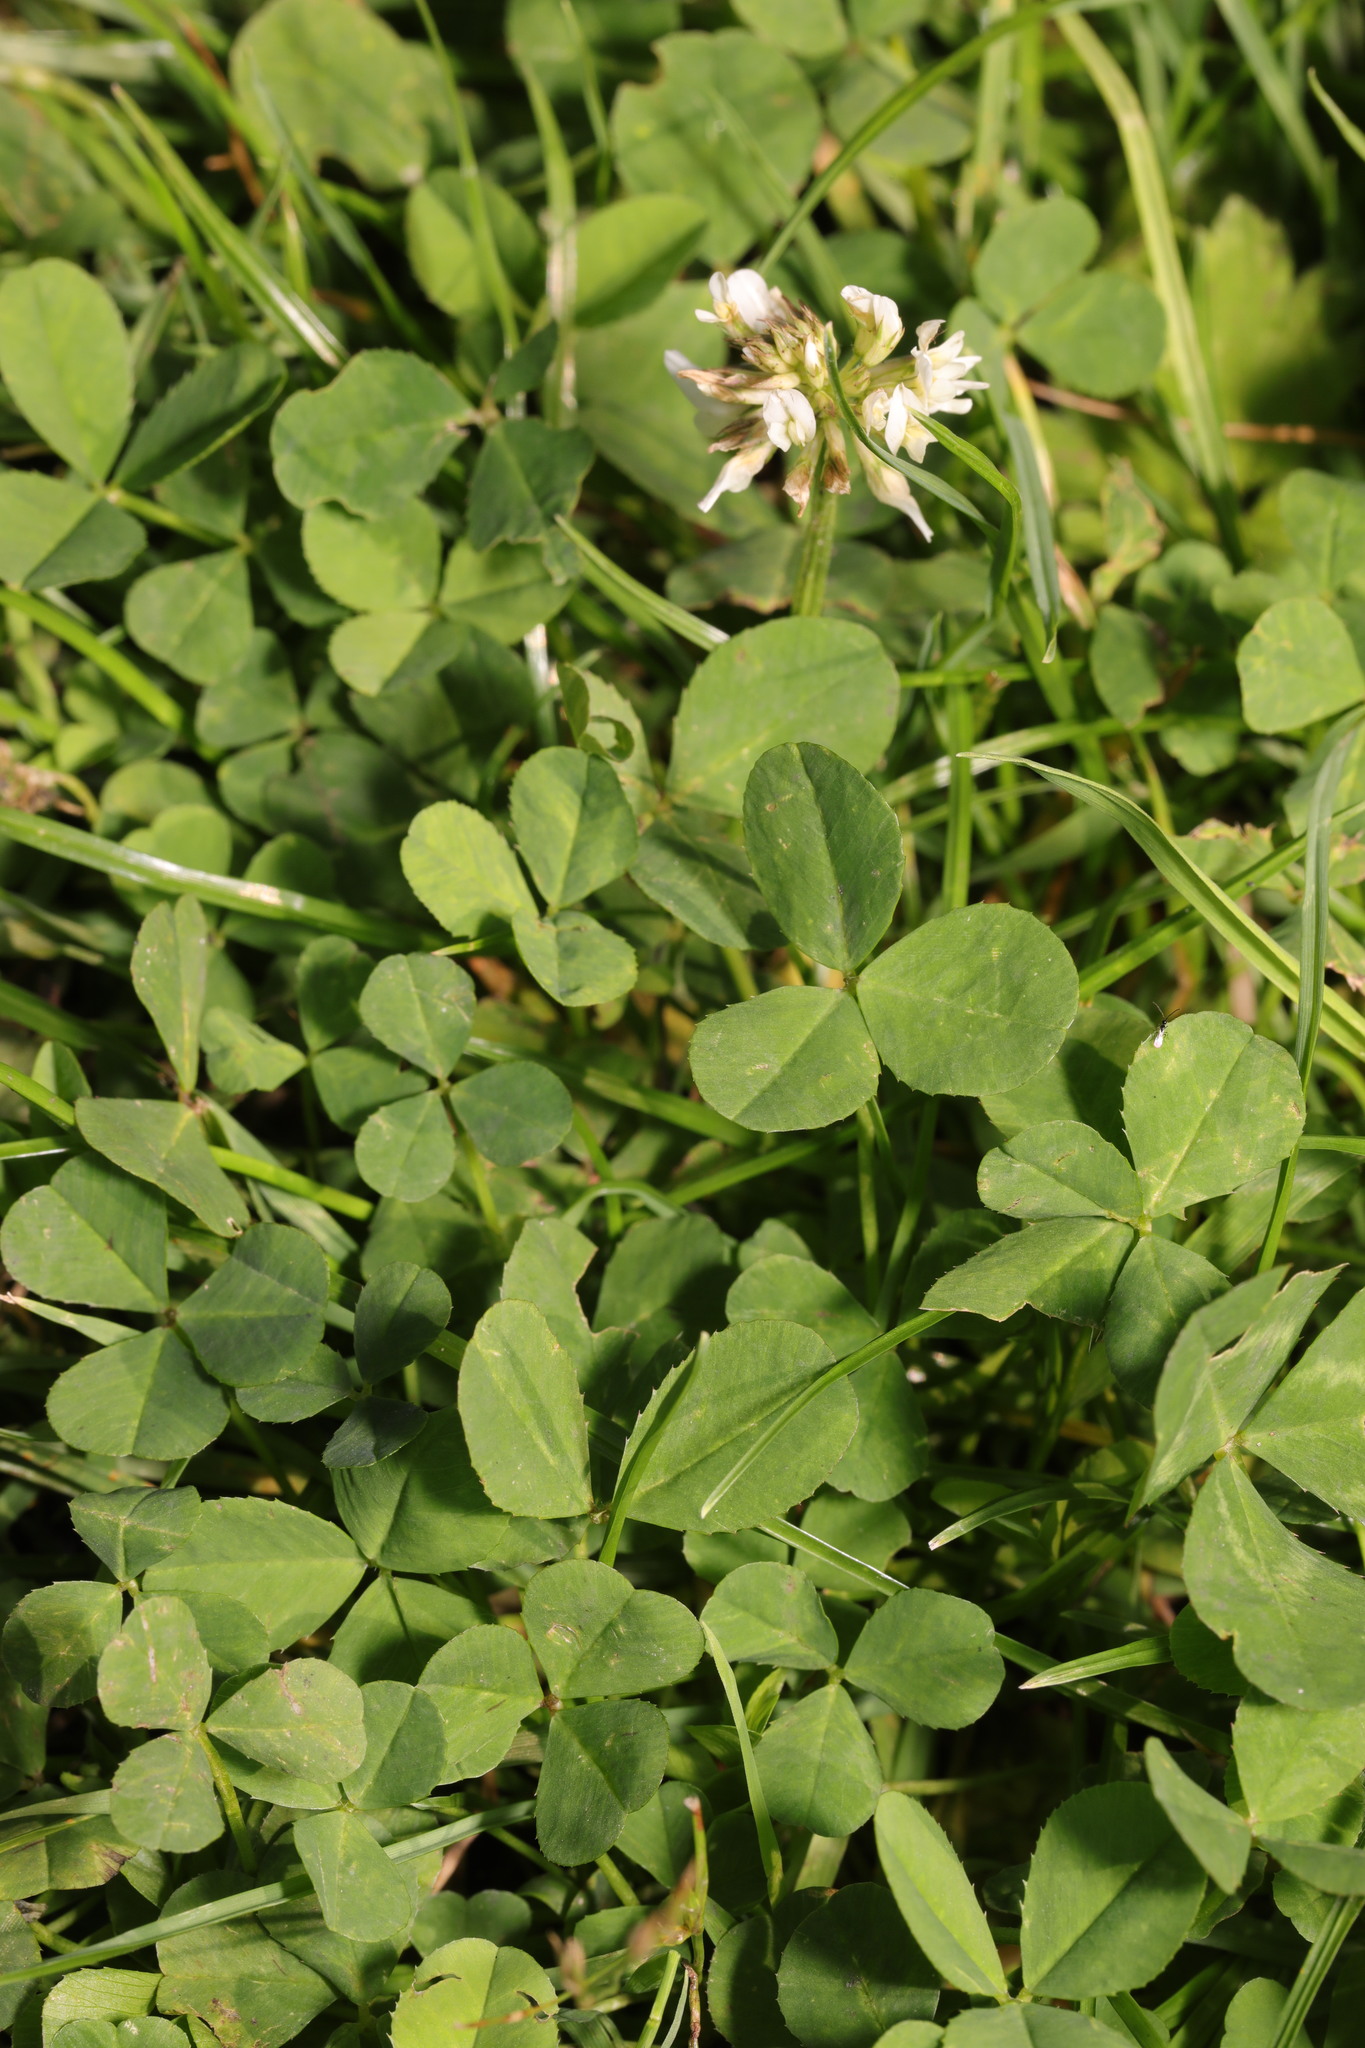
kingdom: Plantae
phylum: Tracheophyta
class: Magnoliopsida
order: Fabales
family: Fabaceae
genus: Trifolium
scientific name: Trifolium repens
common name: White clover
